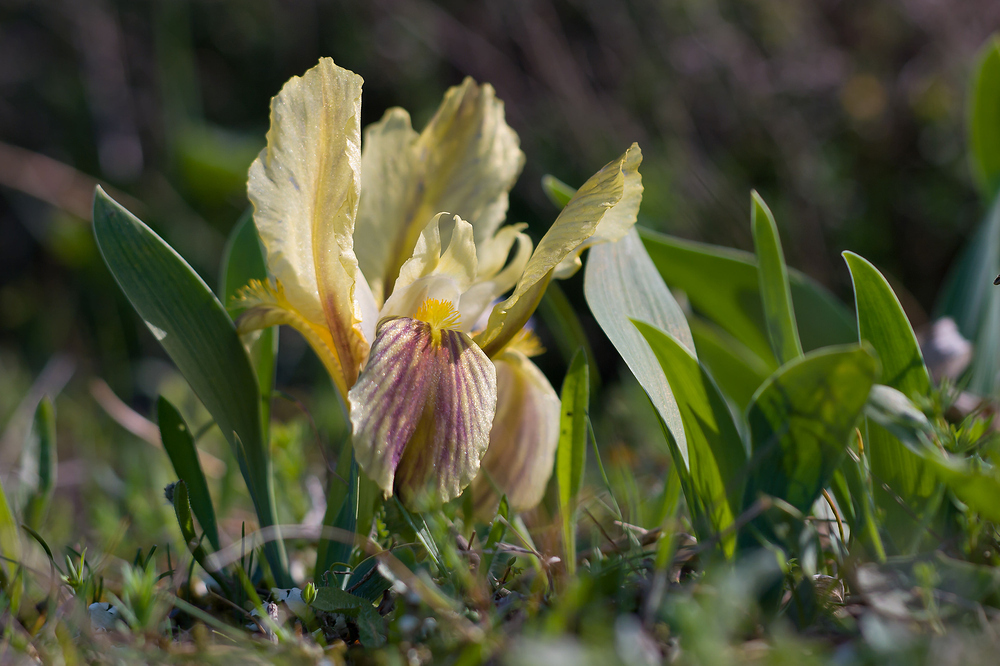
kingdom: Plantae
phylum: Tracheophyta
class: Liliopsida
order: Asparagales
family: Iridaceae
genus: Iris
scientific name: Iris lutescens
